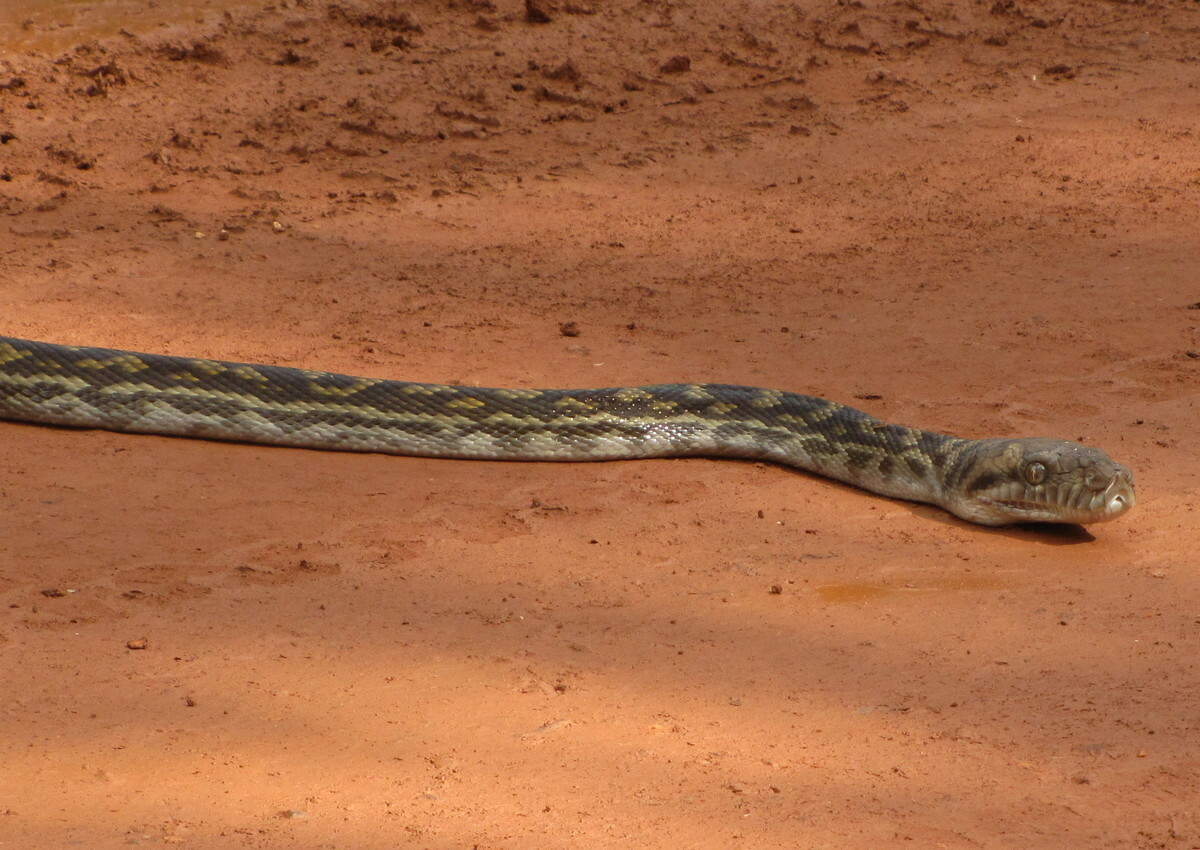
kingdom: Animalia
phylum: Chordata
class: Squamata
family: Pythonidae
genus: Simalia
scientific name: Simalia kinghorni
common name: Scrub python
